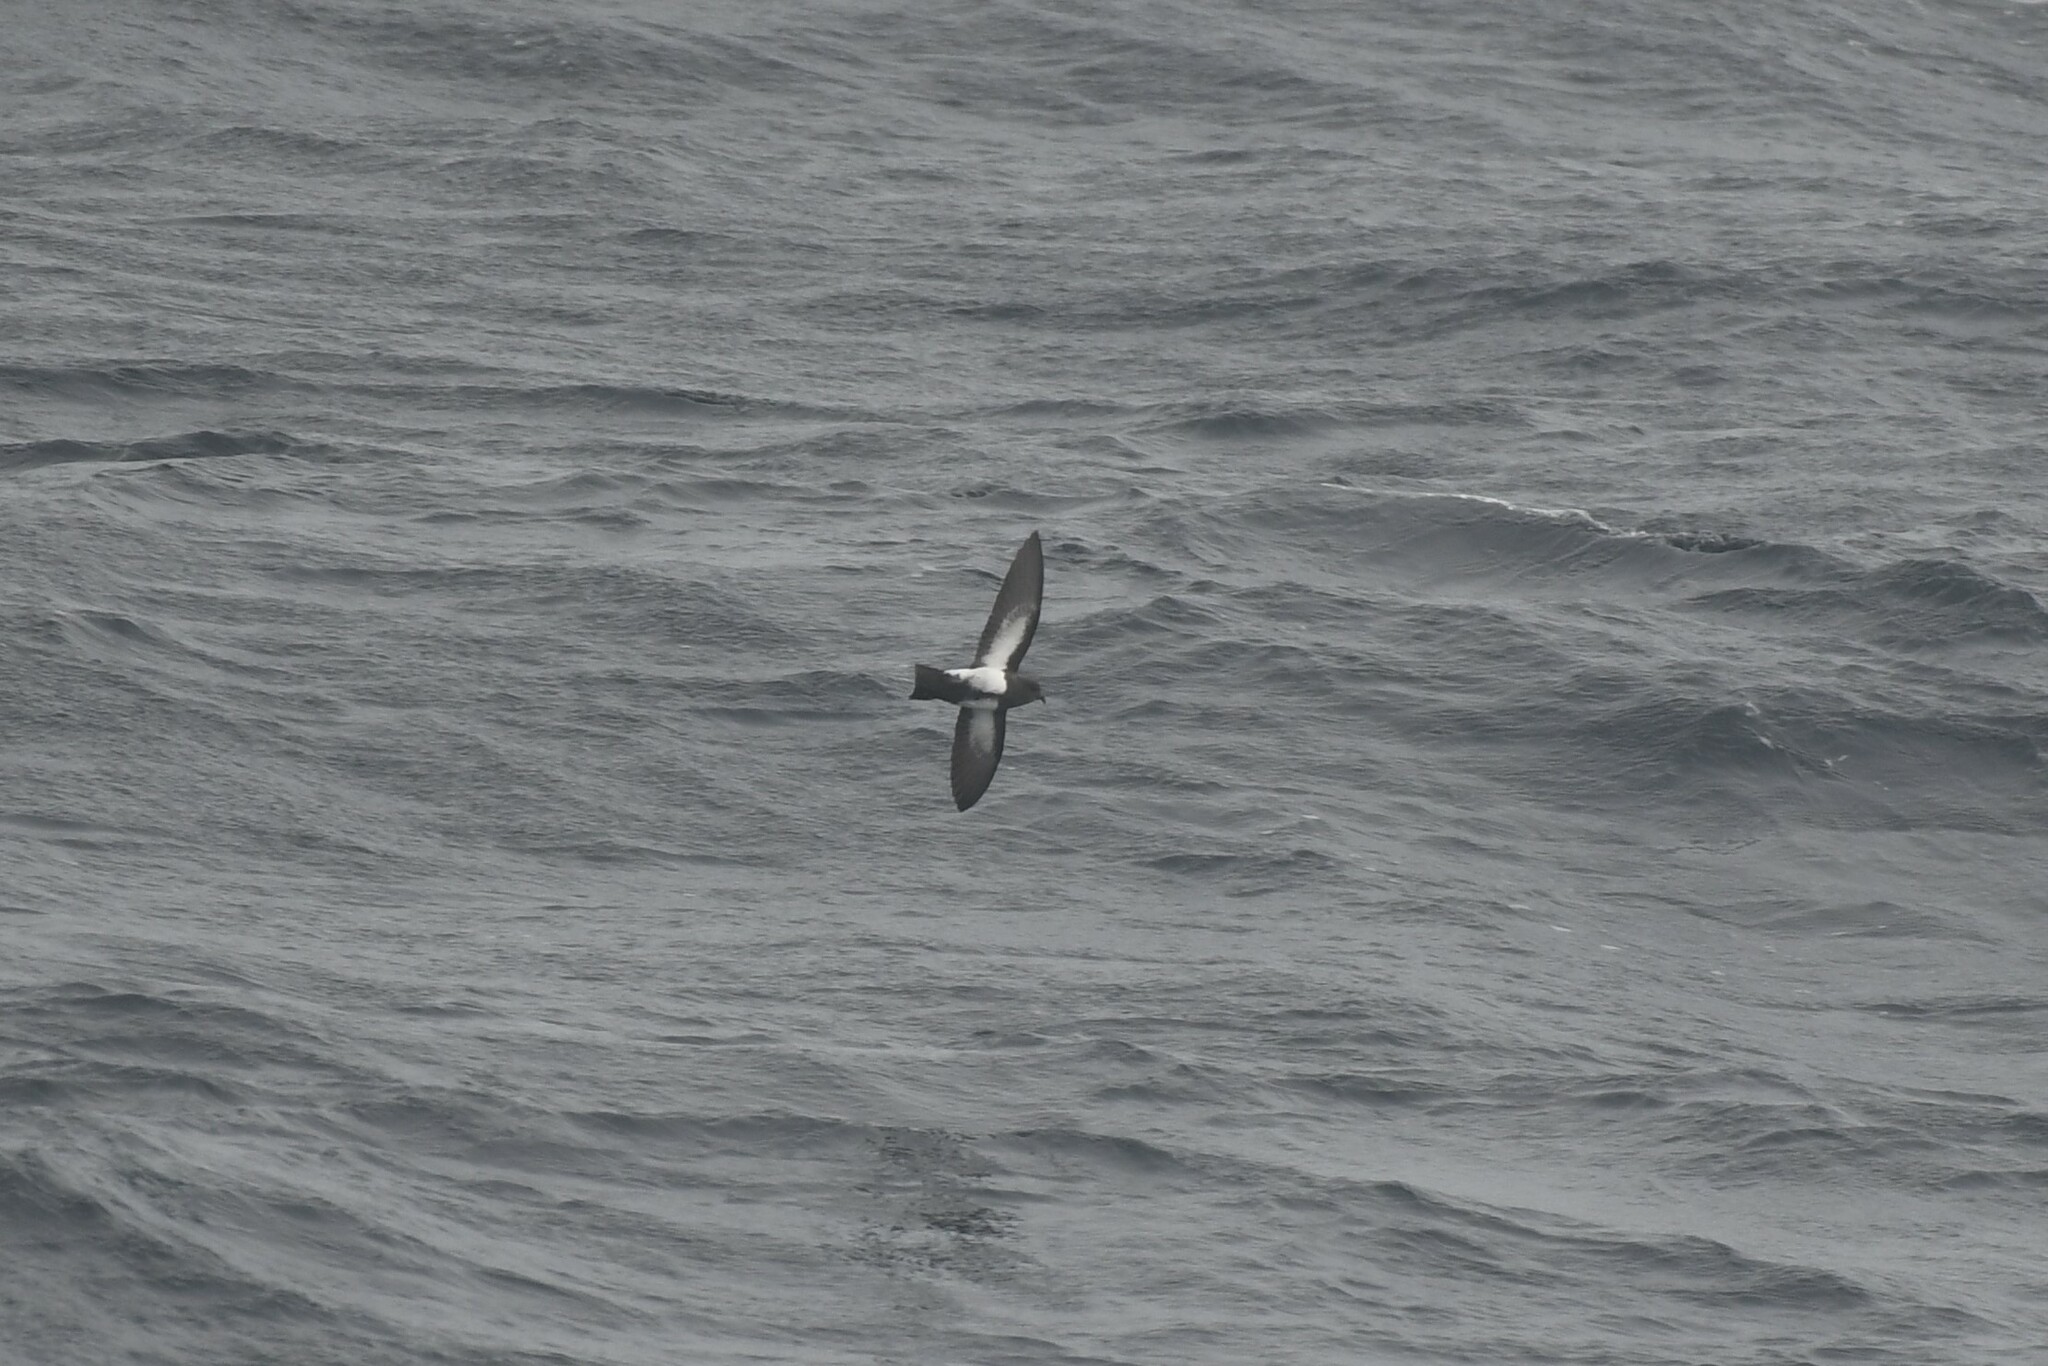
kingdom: Animalia
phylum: Chordata
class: Aves
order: Procellariiformes
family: Hydrobatidae
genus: Fregetta
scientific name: Fregetta tropica
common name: Black-bellied storm-petrel
